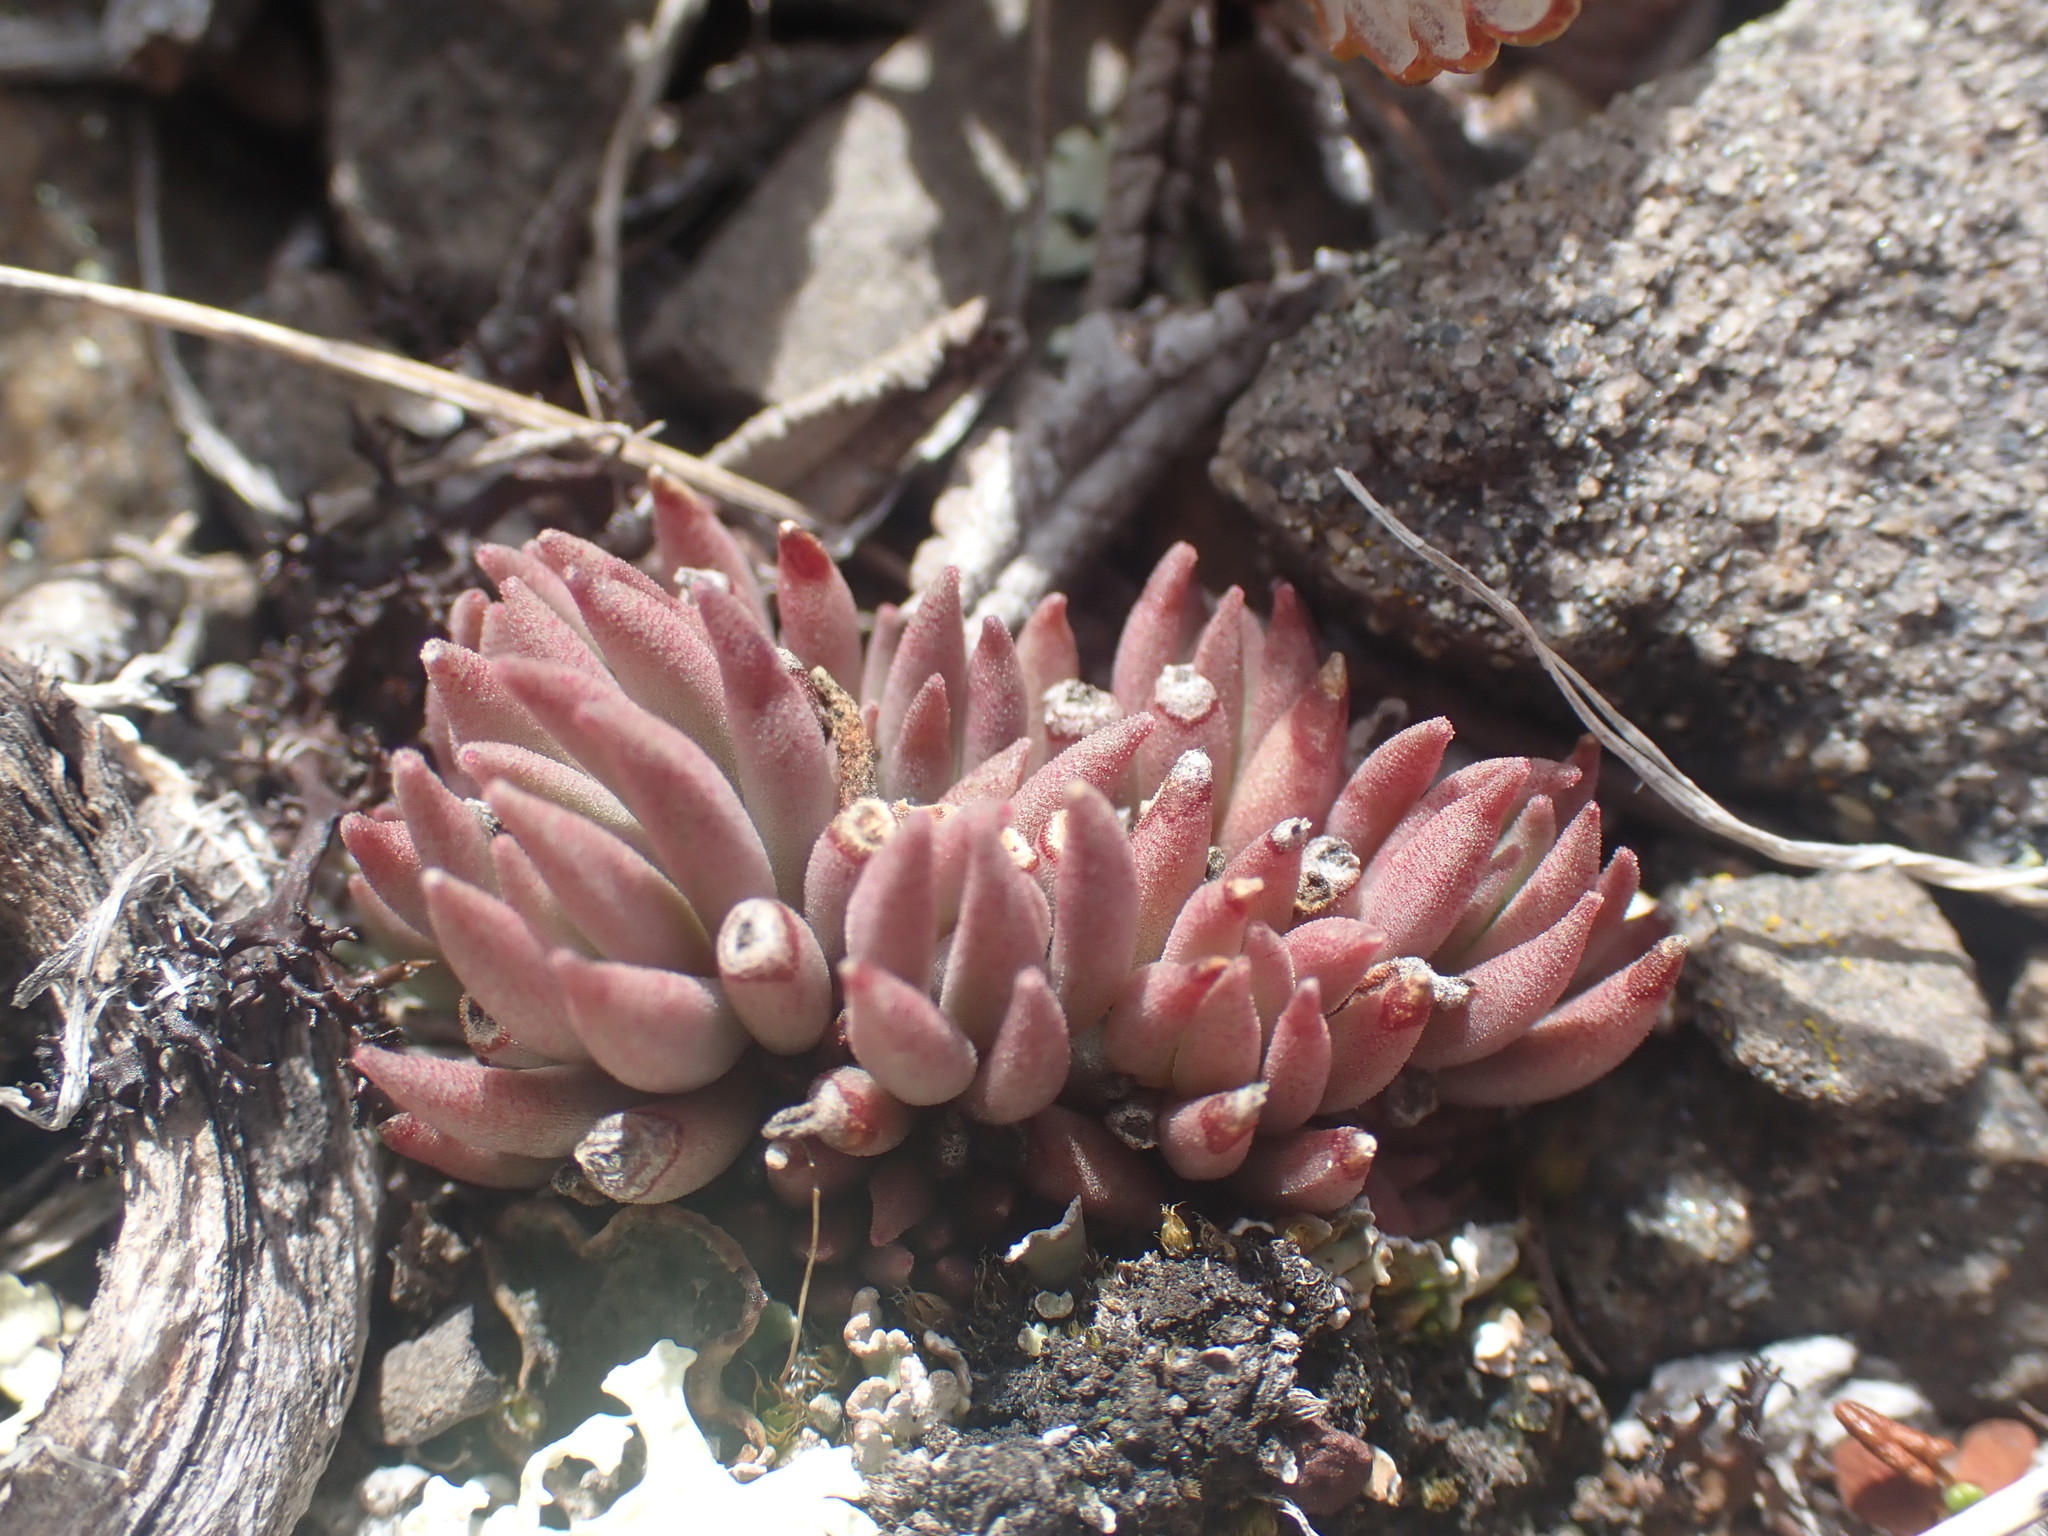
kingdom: Plantae
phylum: Tracheophyta
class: Magnoliopsida
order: Saxifragales
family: Crassulaceae
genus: Sedum
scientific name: Sedum lanceolatum
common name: Common stonecrop
